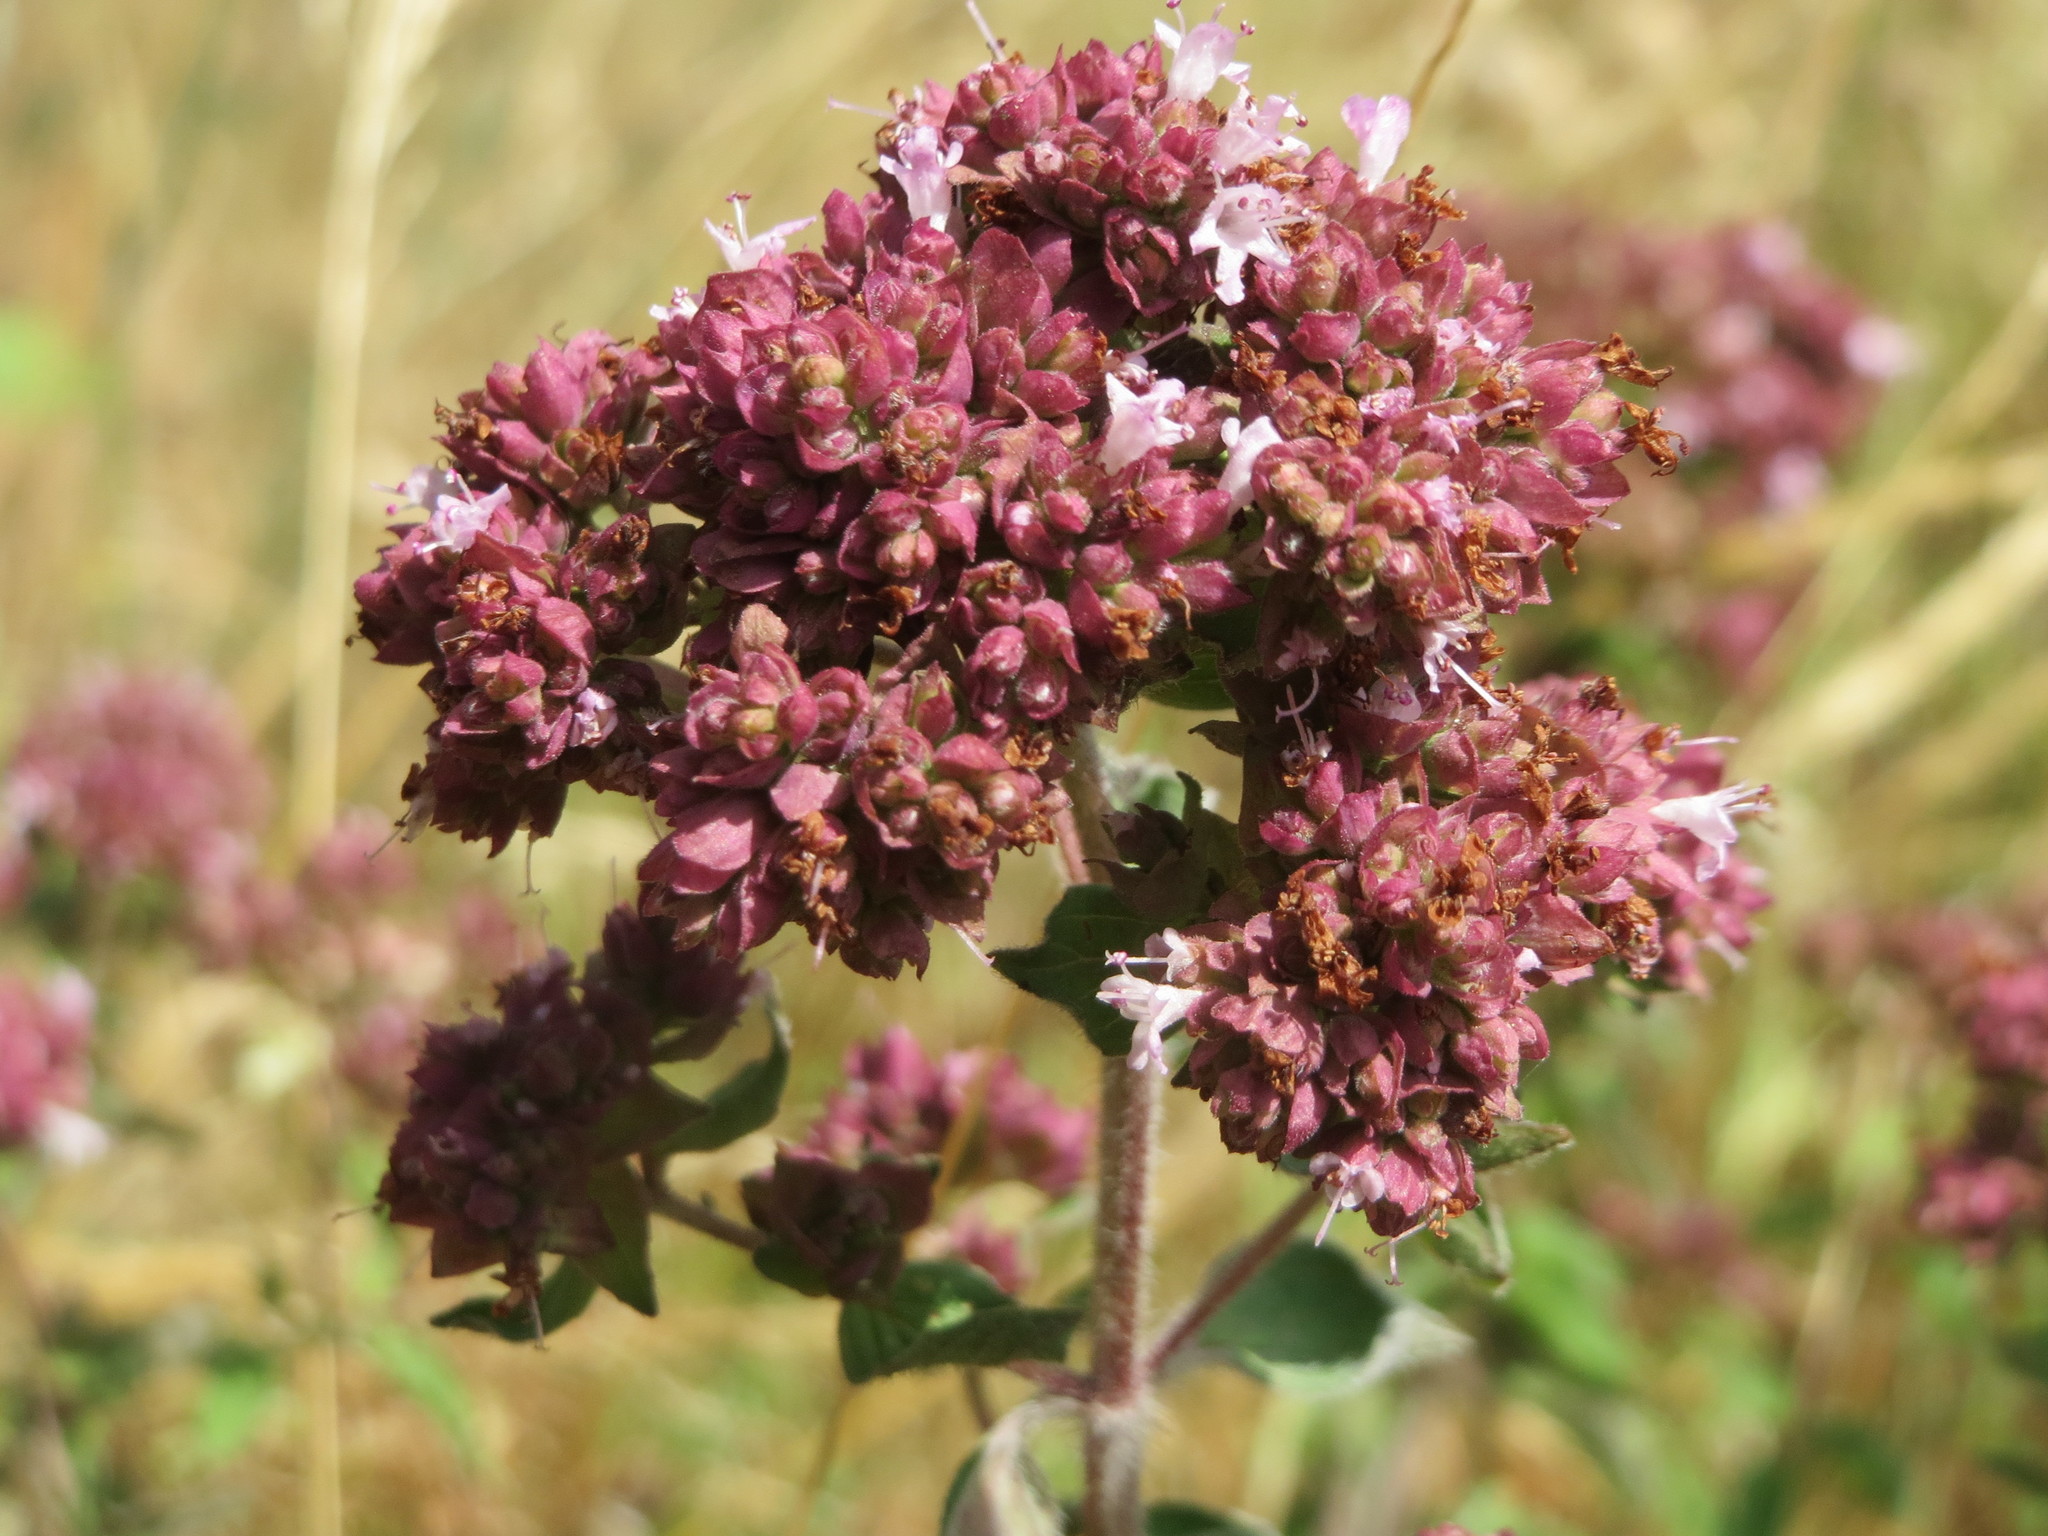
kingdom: Plantae
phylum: Tracheophyta
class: Magnoliopsida
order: Lamiales
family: Lamiaceae
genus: Origanum
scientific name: Origanum vulgare
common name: Wild marjoram
